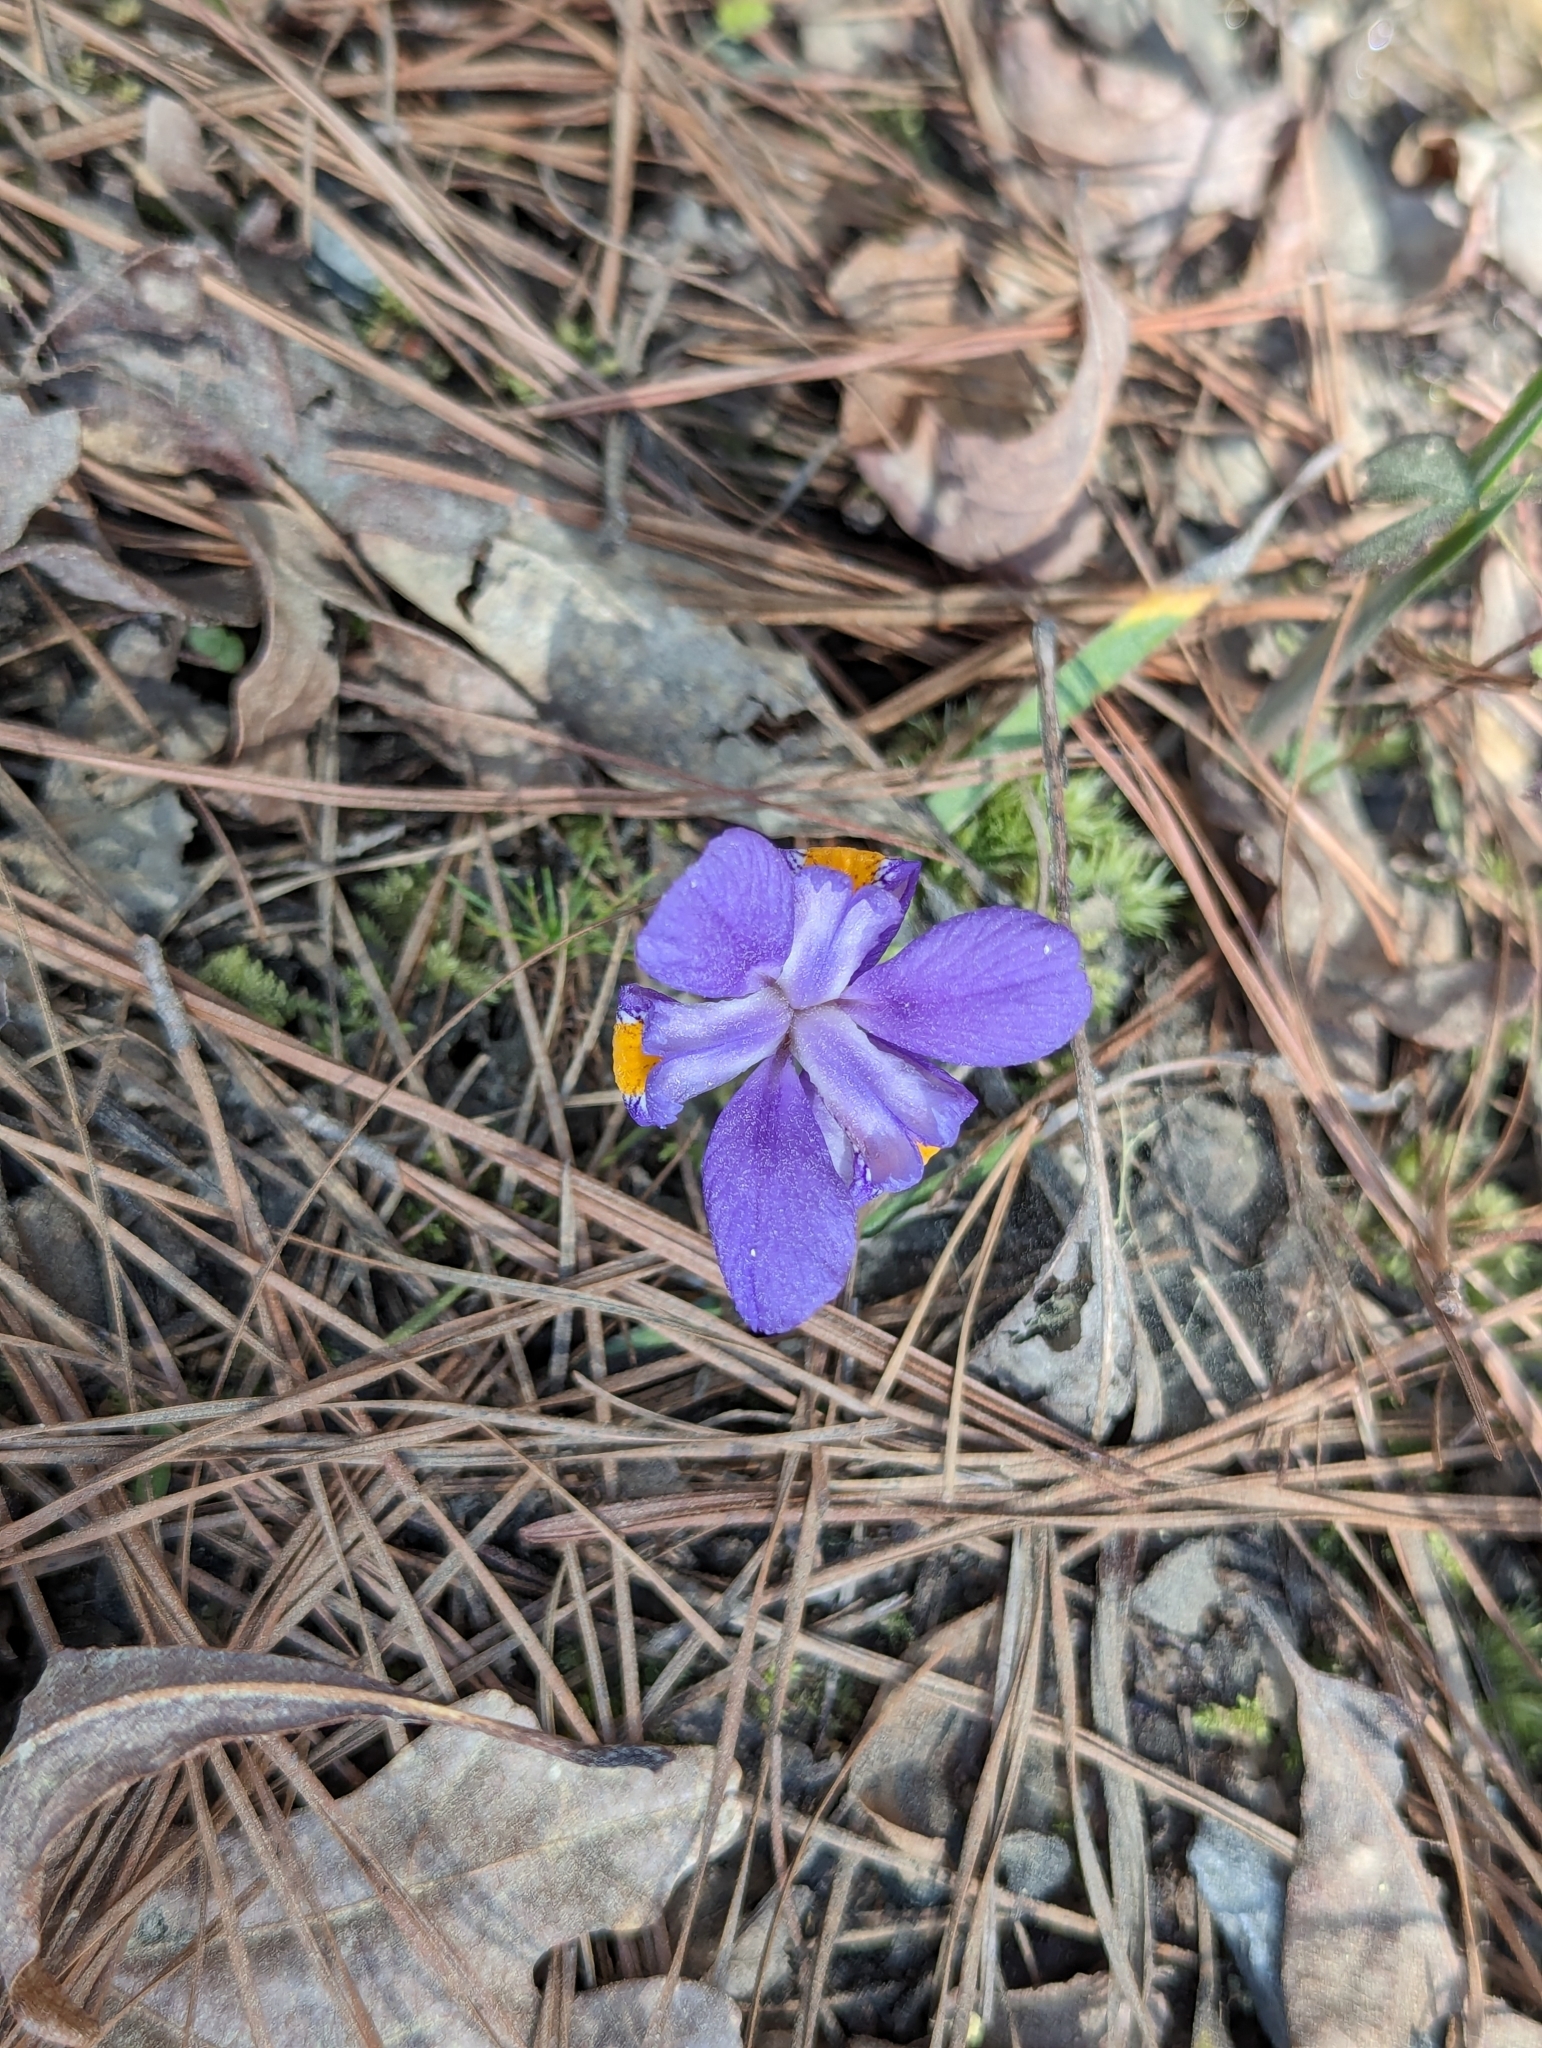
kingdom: Plantae
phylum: Tracheophyta
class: Liliopsida
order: Asparagales
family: Iridaceae
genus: Iris
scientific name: Iris verna
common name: Dwarf iris
